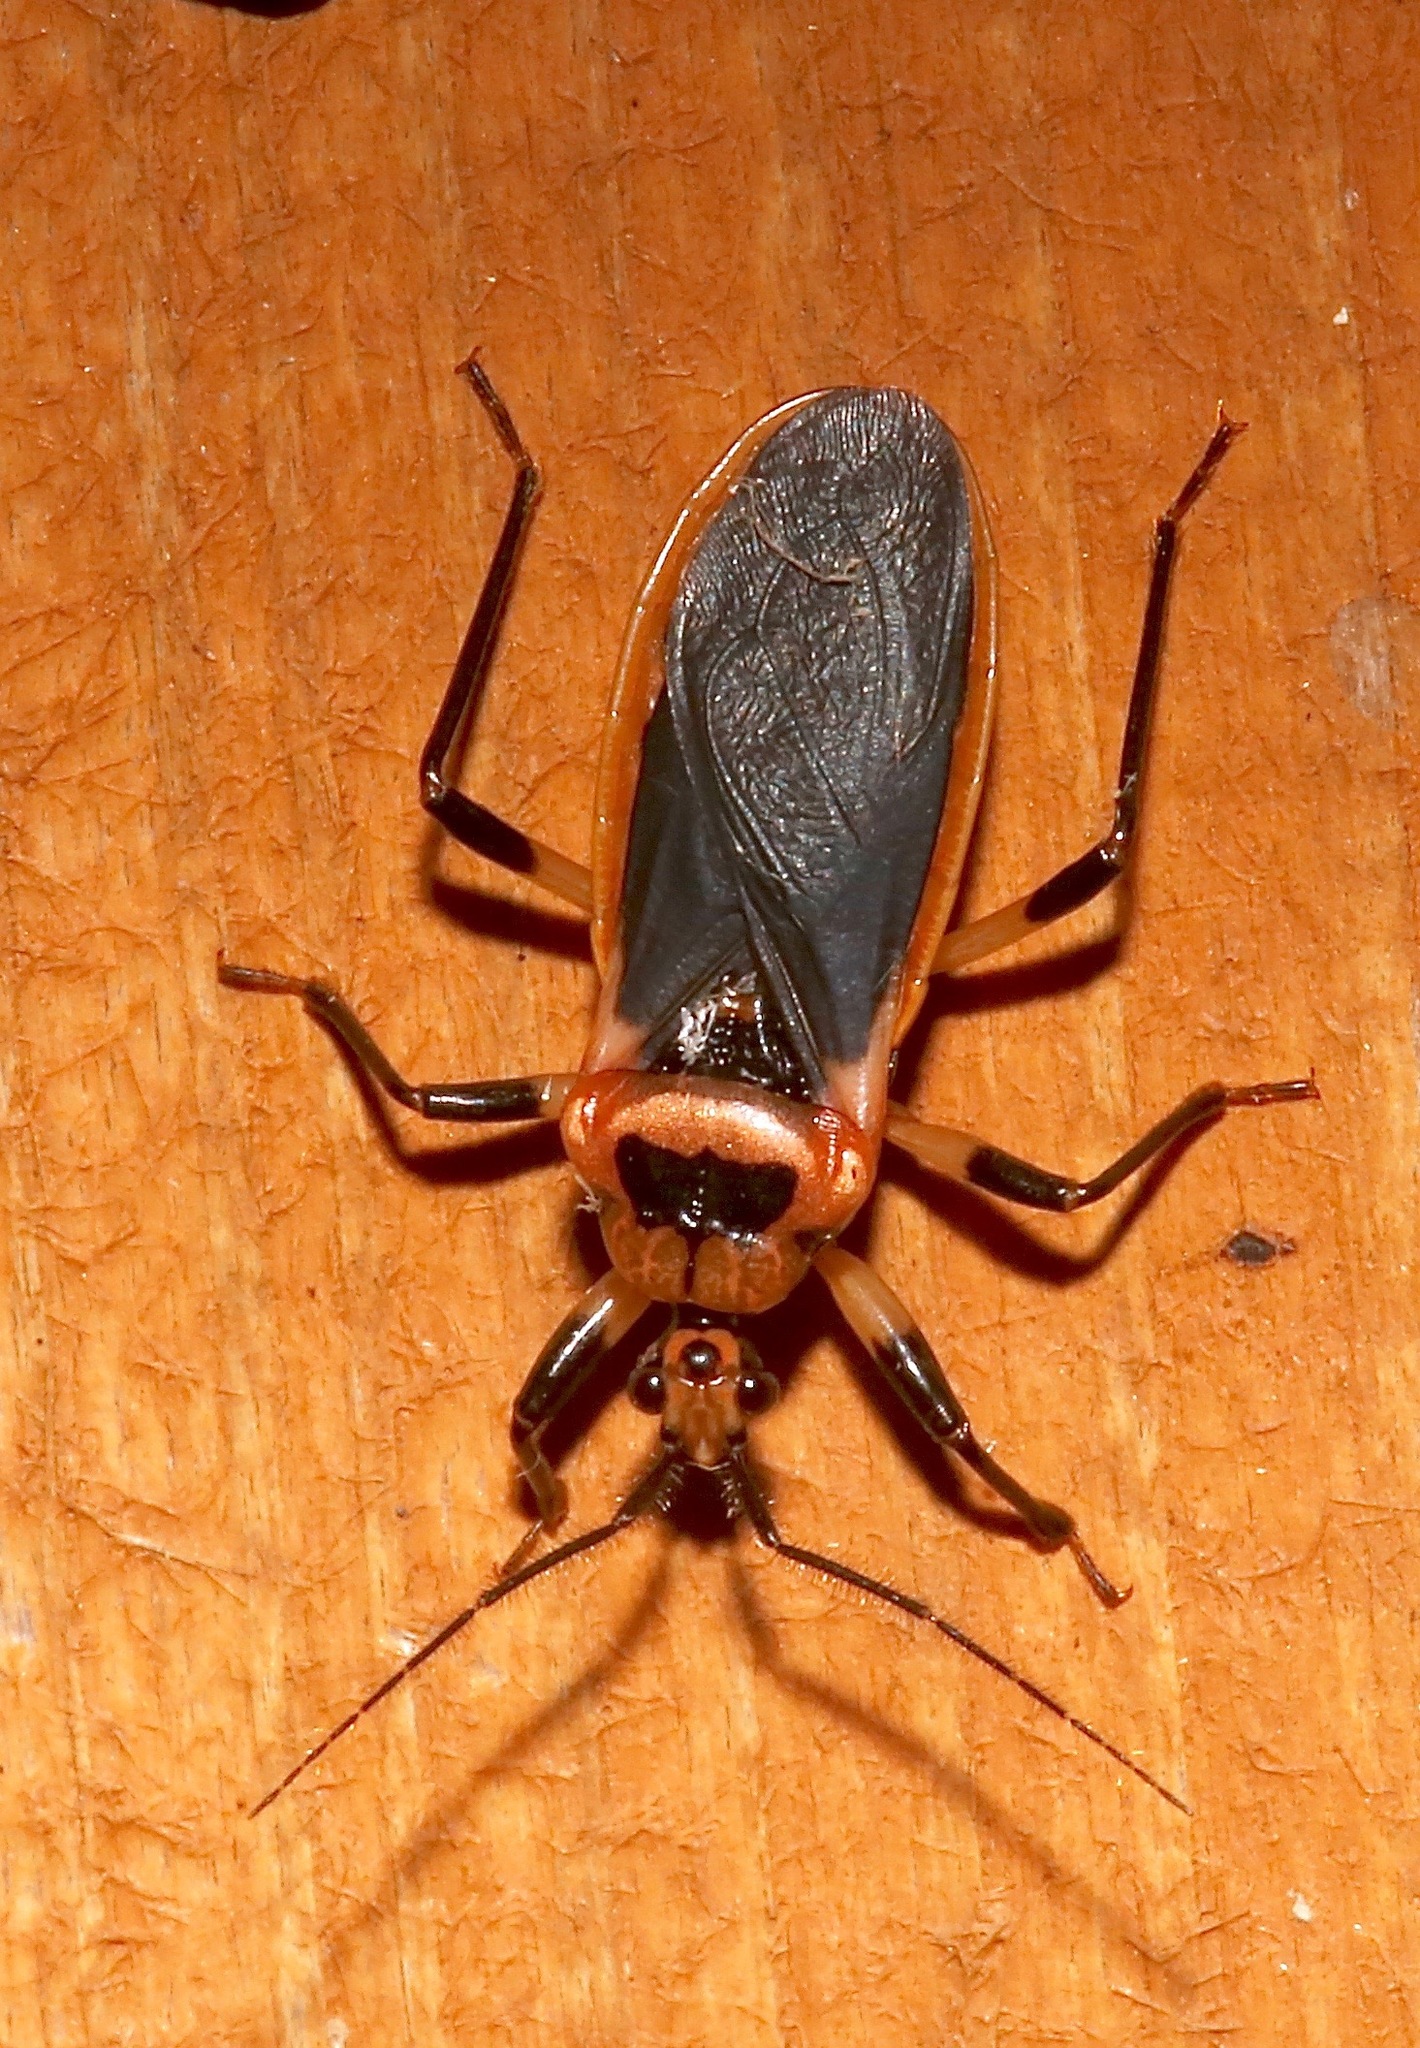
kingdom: Animalia
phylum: Arthropoda
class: Insecta
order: Hemiptera
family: Reduviidae
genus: Rhiginia
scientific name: Rhiginia cruciata
